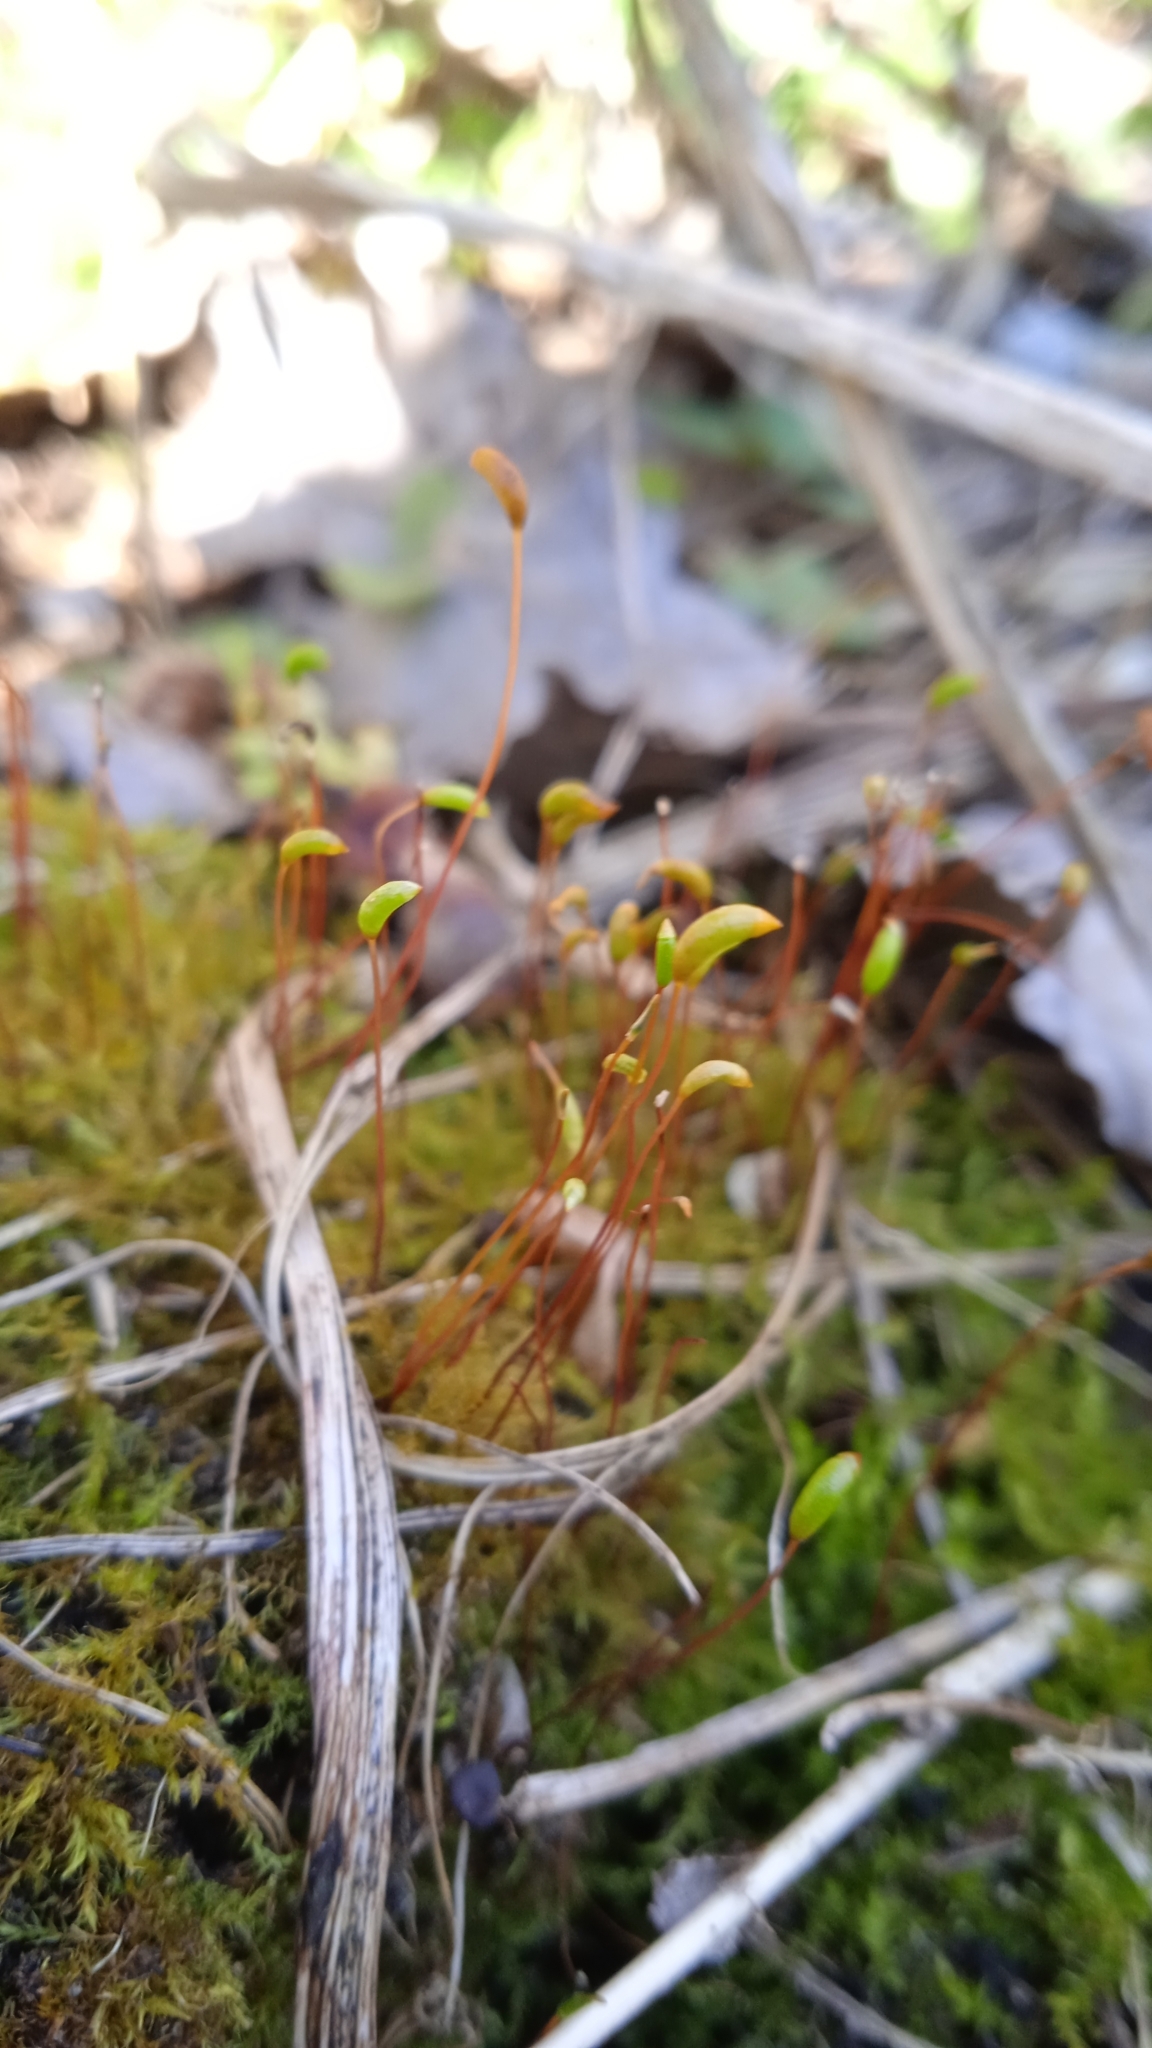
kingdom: Plantae
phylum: Bryophyta
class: Bryopsida
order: Hypnales
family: Amblystegiaceae
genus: Amblystegium
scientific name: Amblystegium serpens
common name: Jurkatzka's feather moss
